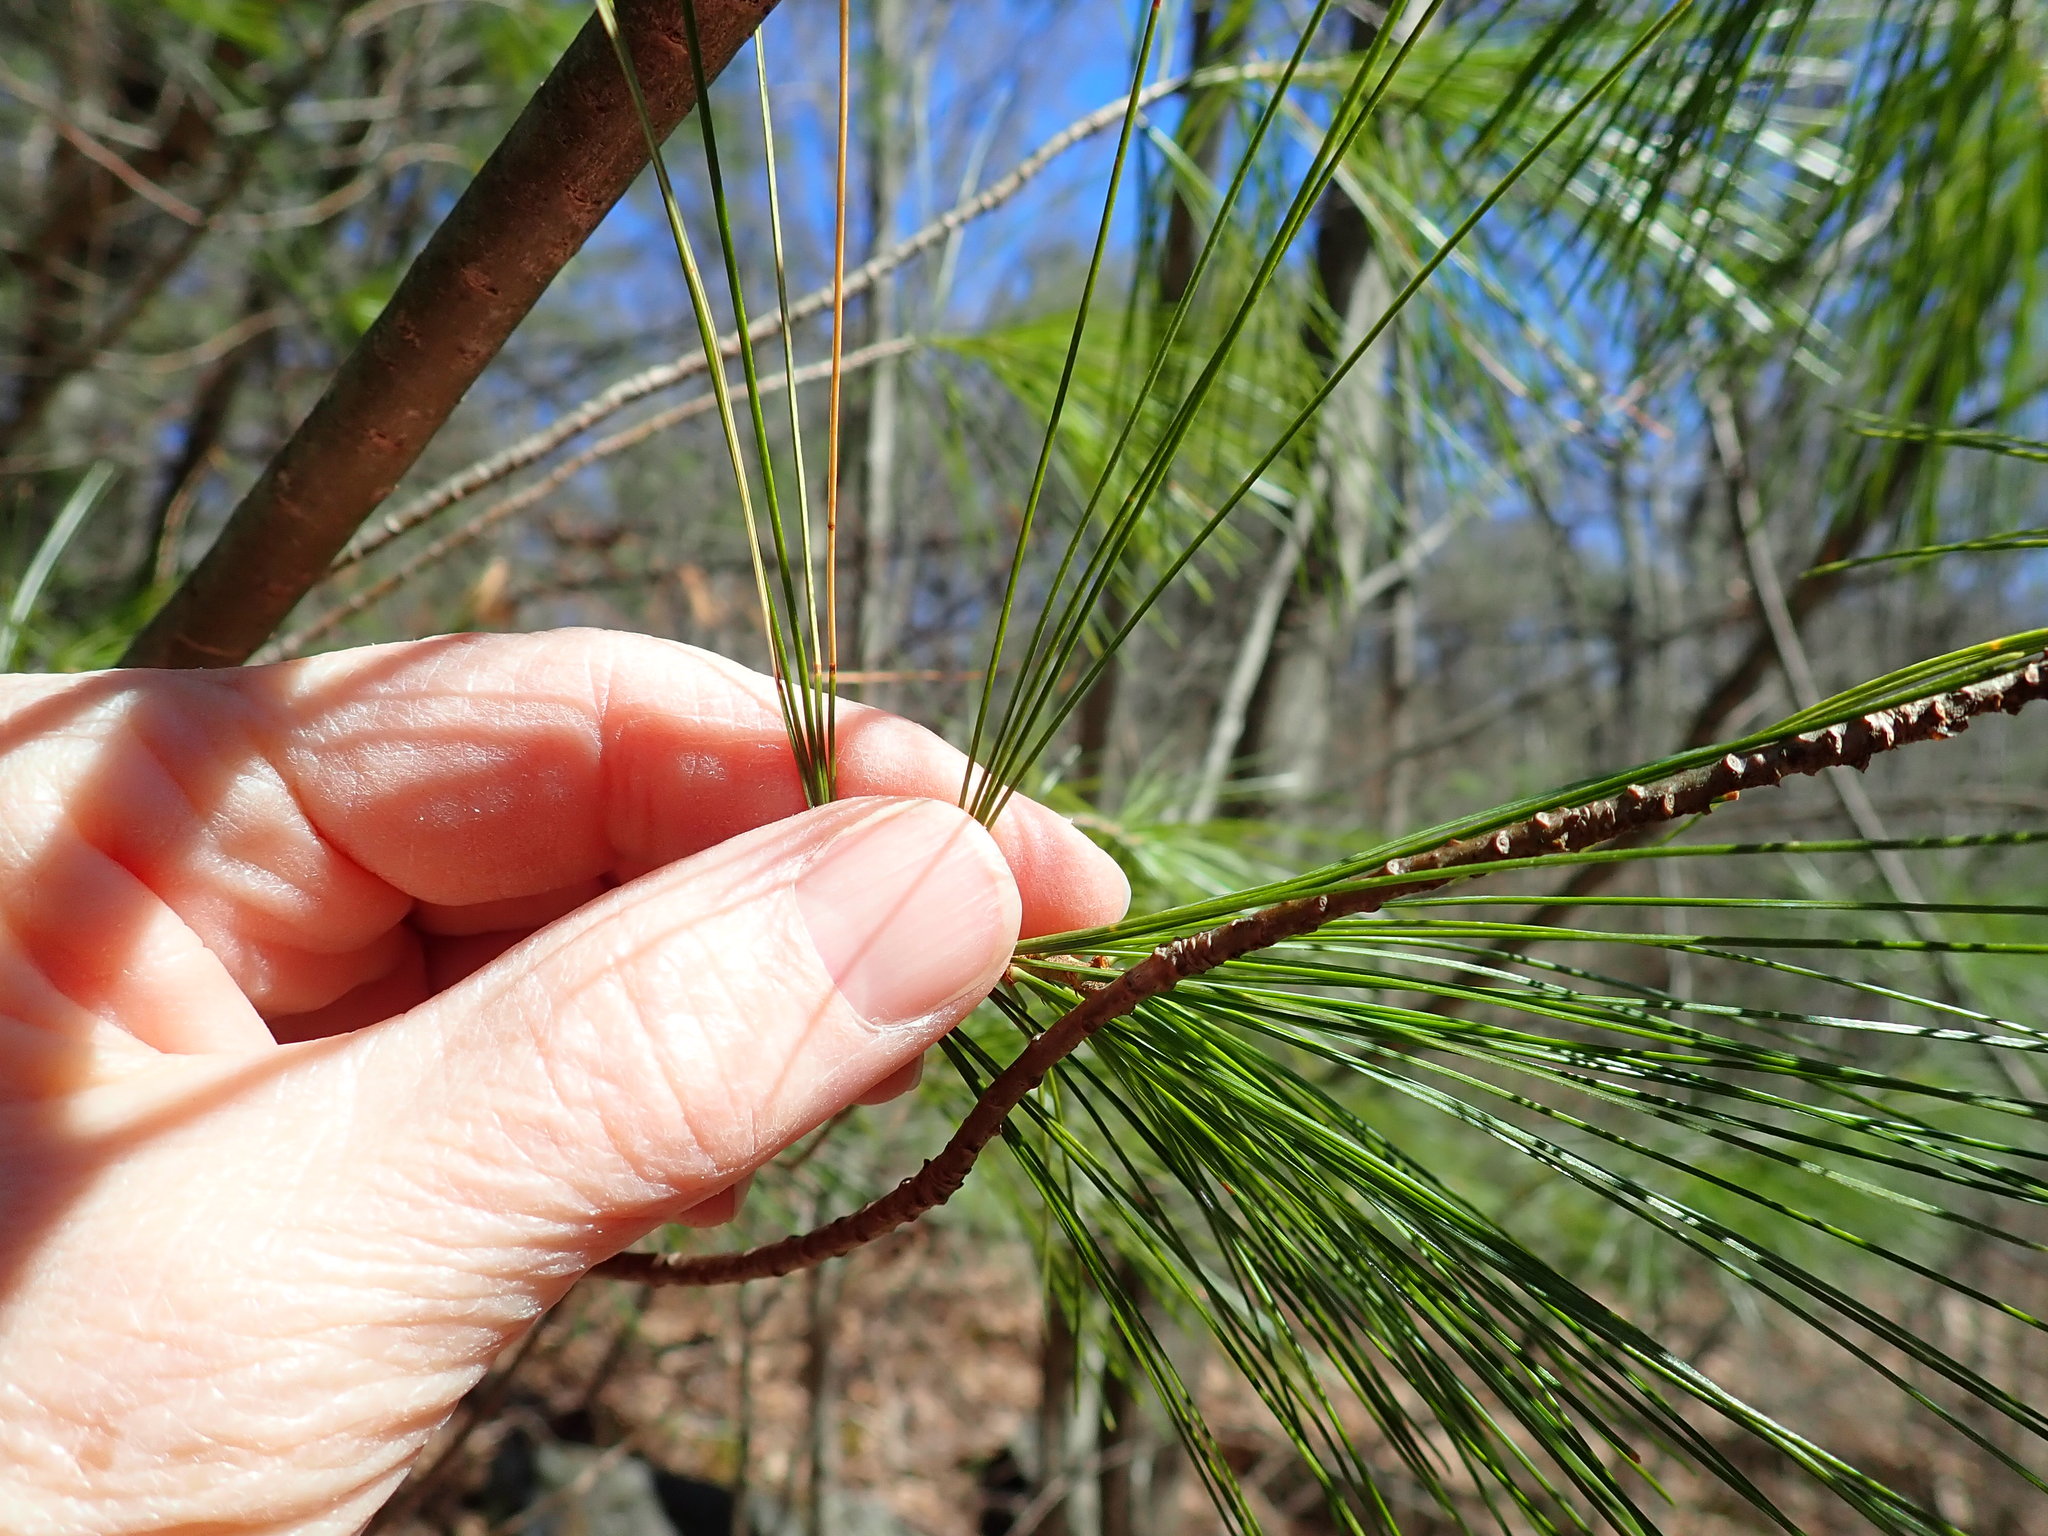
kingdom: Plantae
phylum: Tracheophyta
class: Pinopsida
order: Pinales
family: Pinaceae
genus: Pinus
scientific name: Pinus strobus
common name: Weymouth pine
